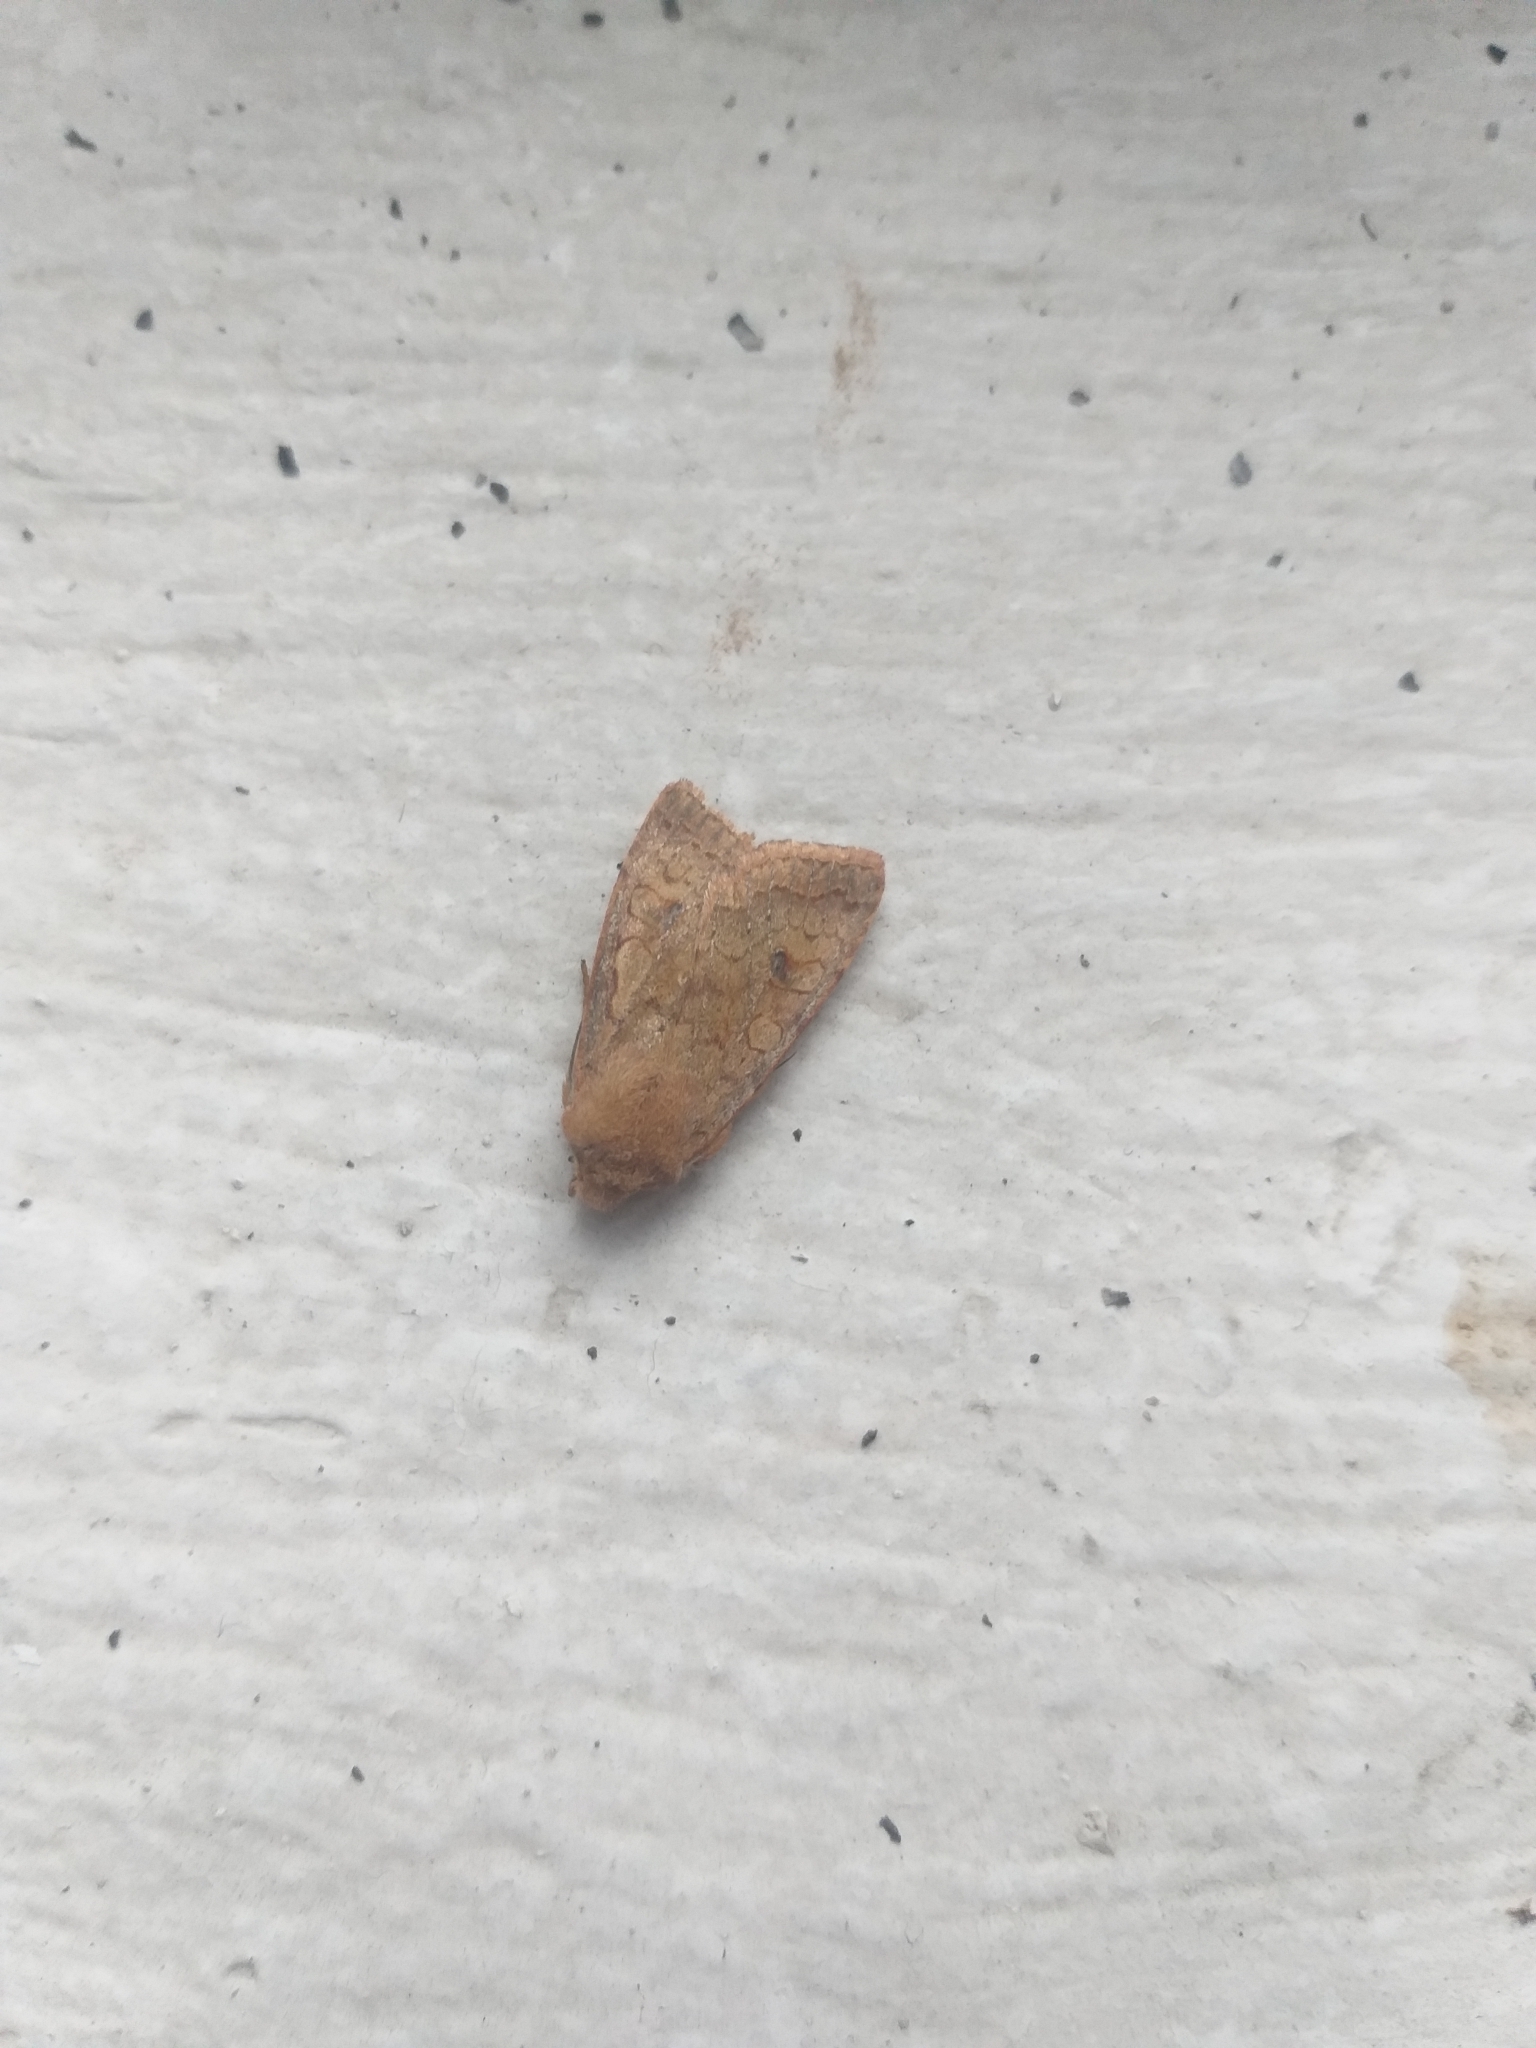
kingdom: Animalia
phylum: Arthropoda
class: Insecta
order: Lepidoptera
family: Noctuidae
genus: Sunira
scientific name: Sunira circellaris
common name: Brick
